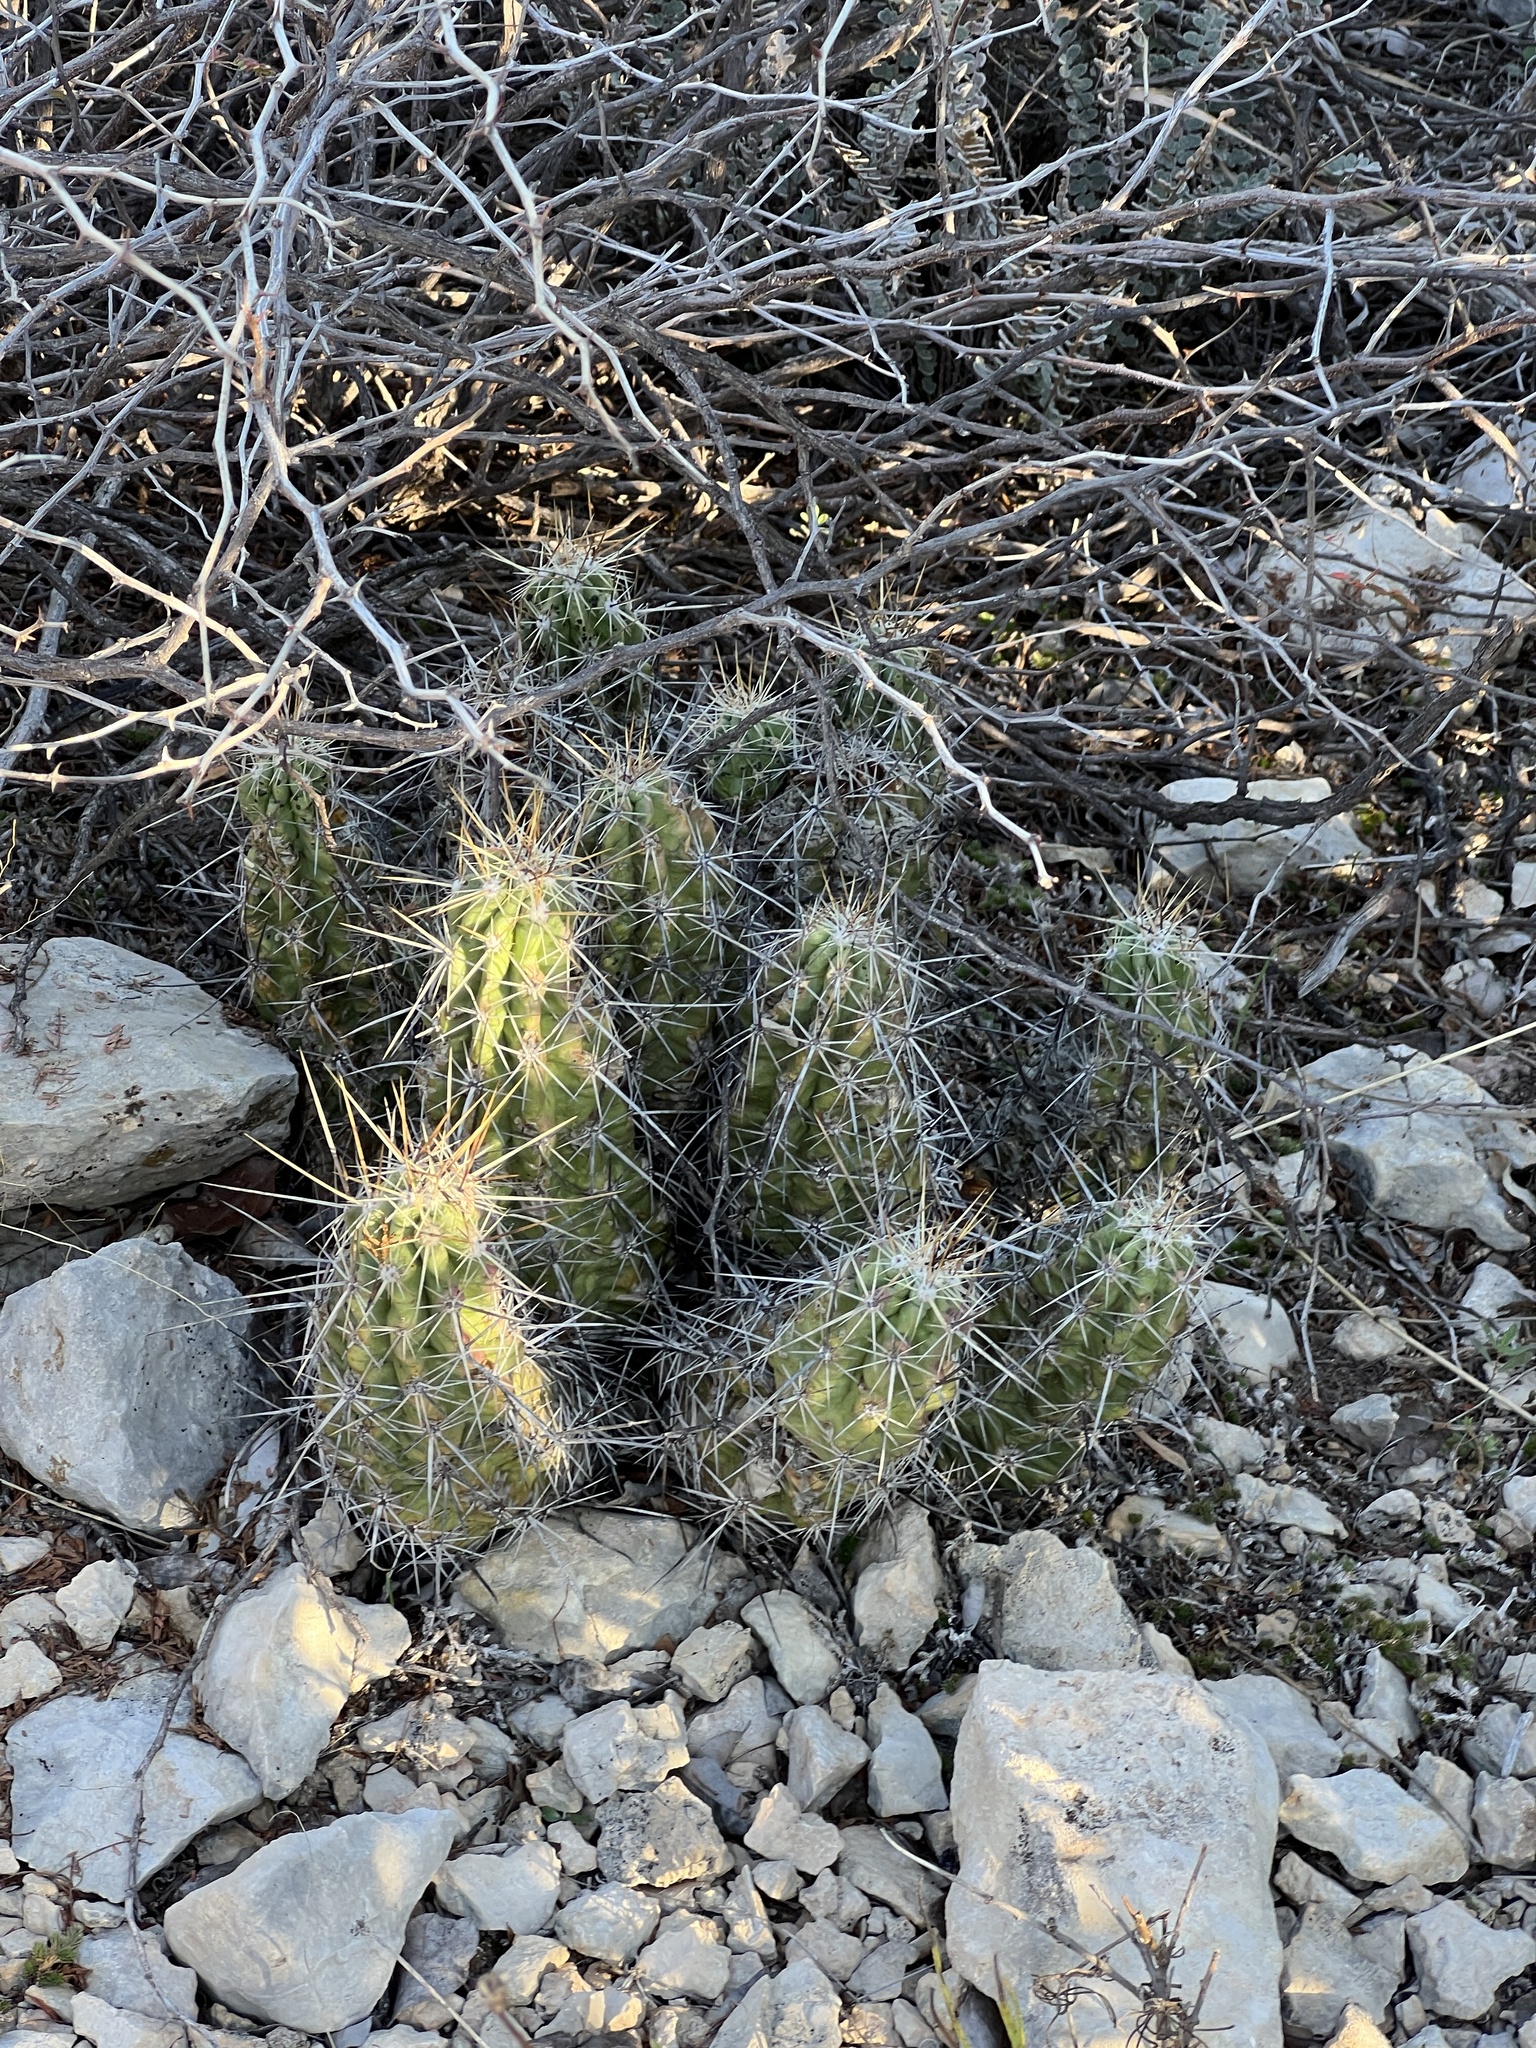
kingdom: Plantae
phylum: Tracheophyta
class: Magnoliopsida
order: Caryophyllales
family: Cactaceae
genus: Echinocereus
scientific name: Echinocereus enneacanthus
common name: Pitaya
